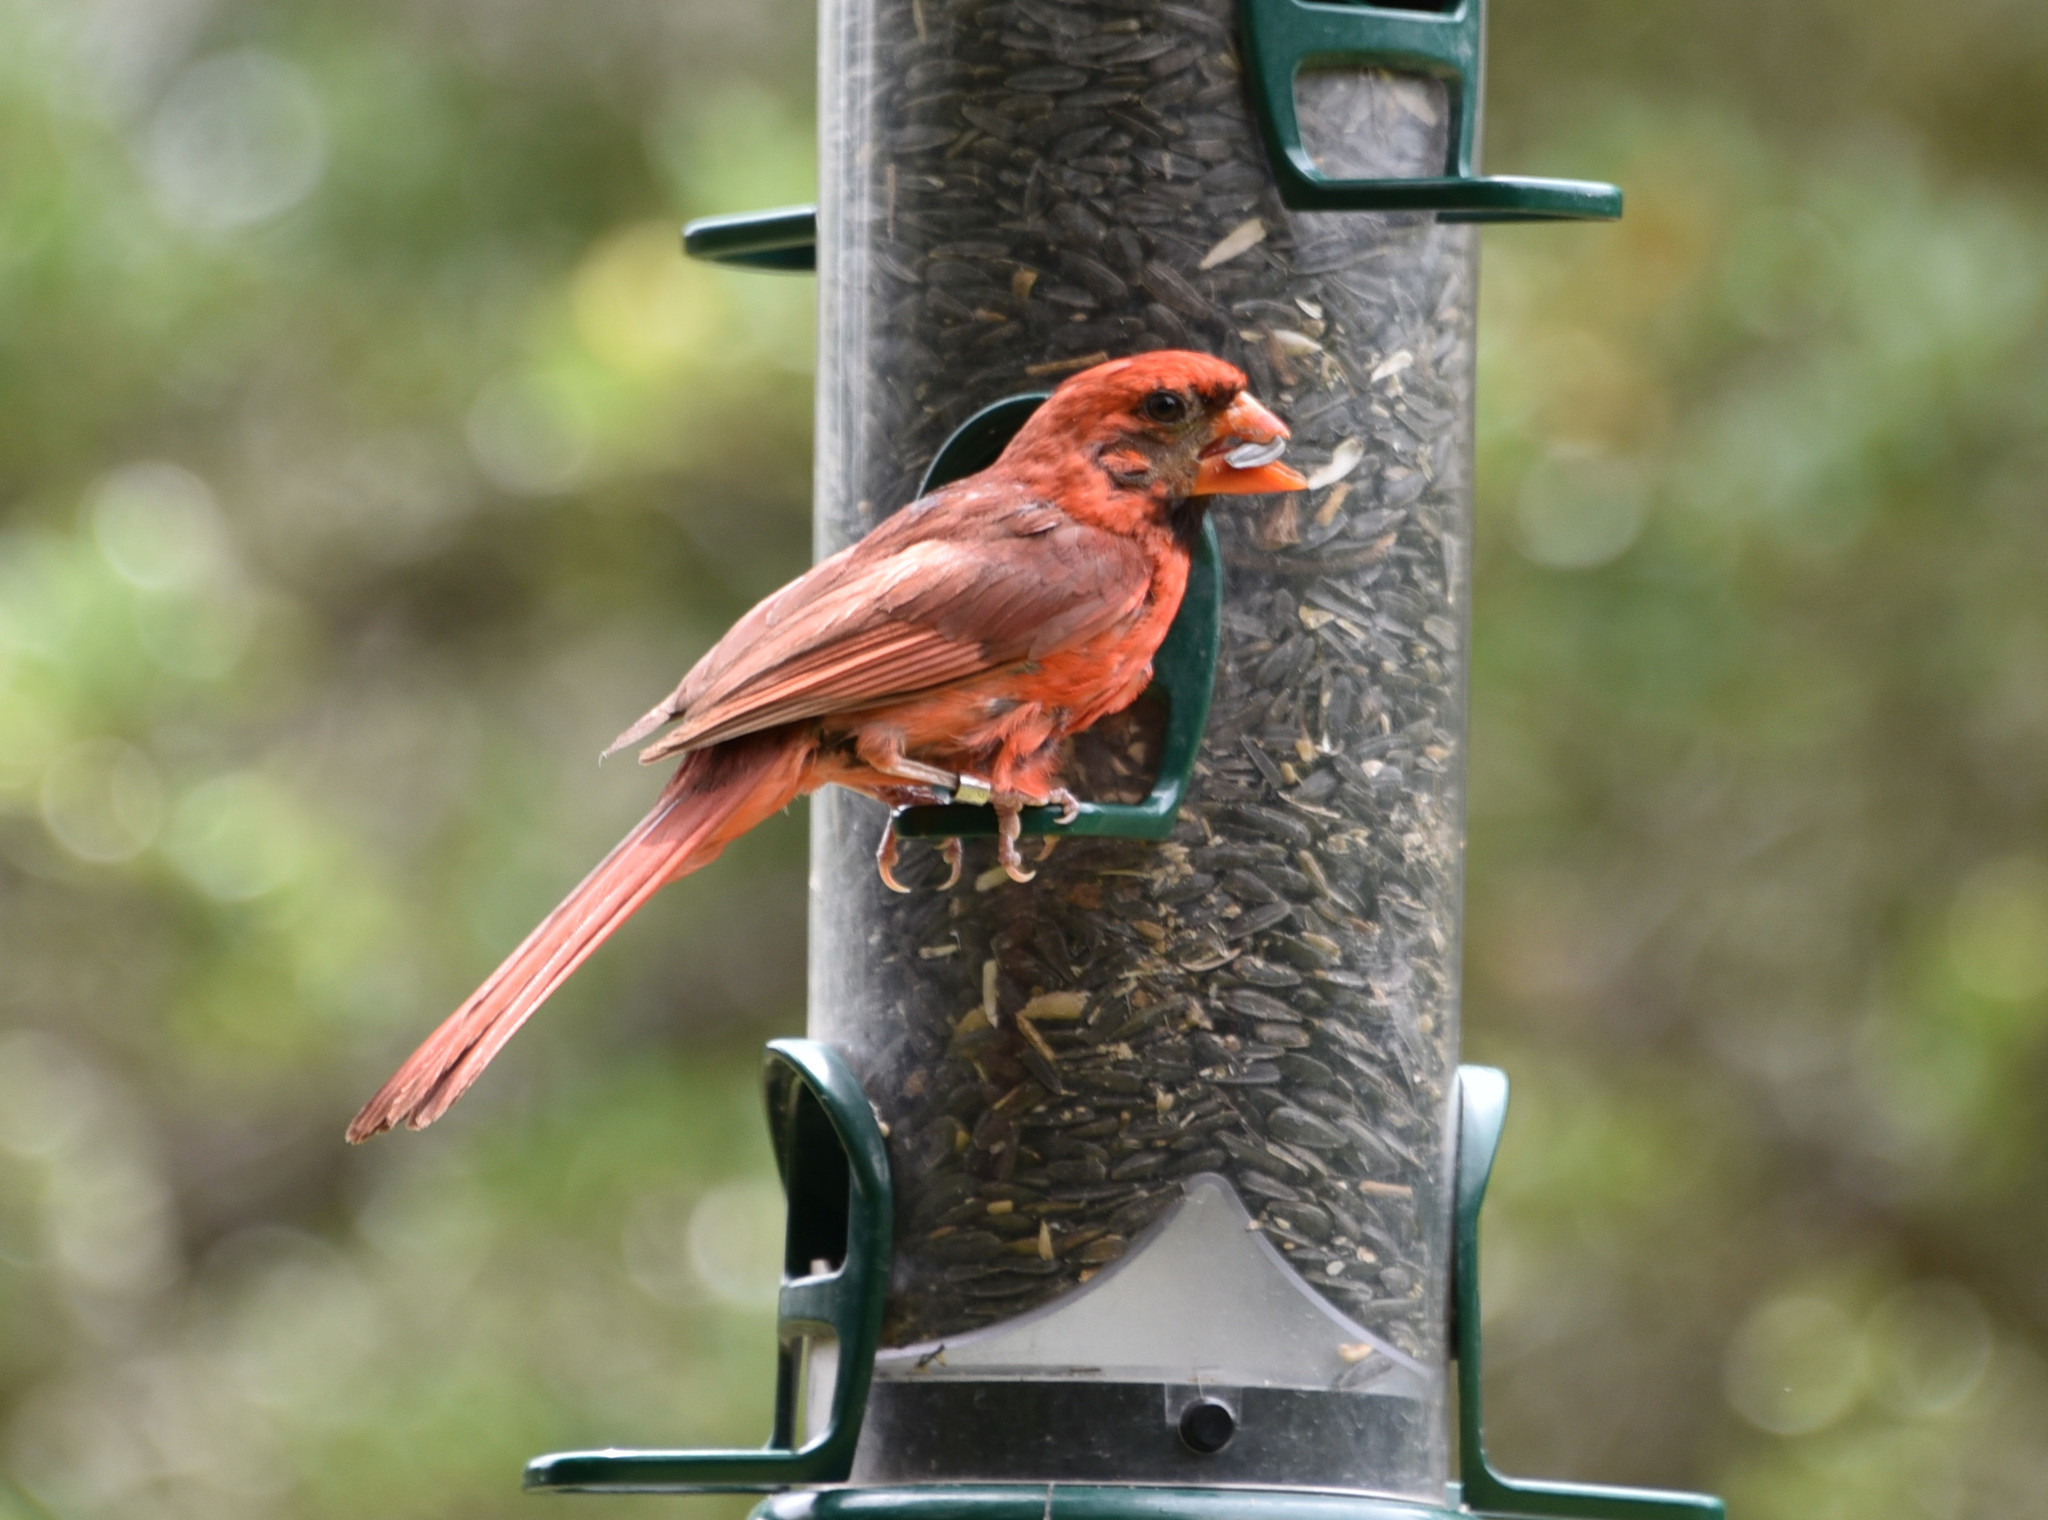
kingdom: Animalia
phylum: Chordata
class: Aves
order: Passeriformes
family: Cardinalidae
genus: Cardinalis
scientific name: Cardinalis cardinalis
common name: Northern cardinal
